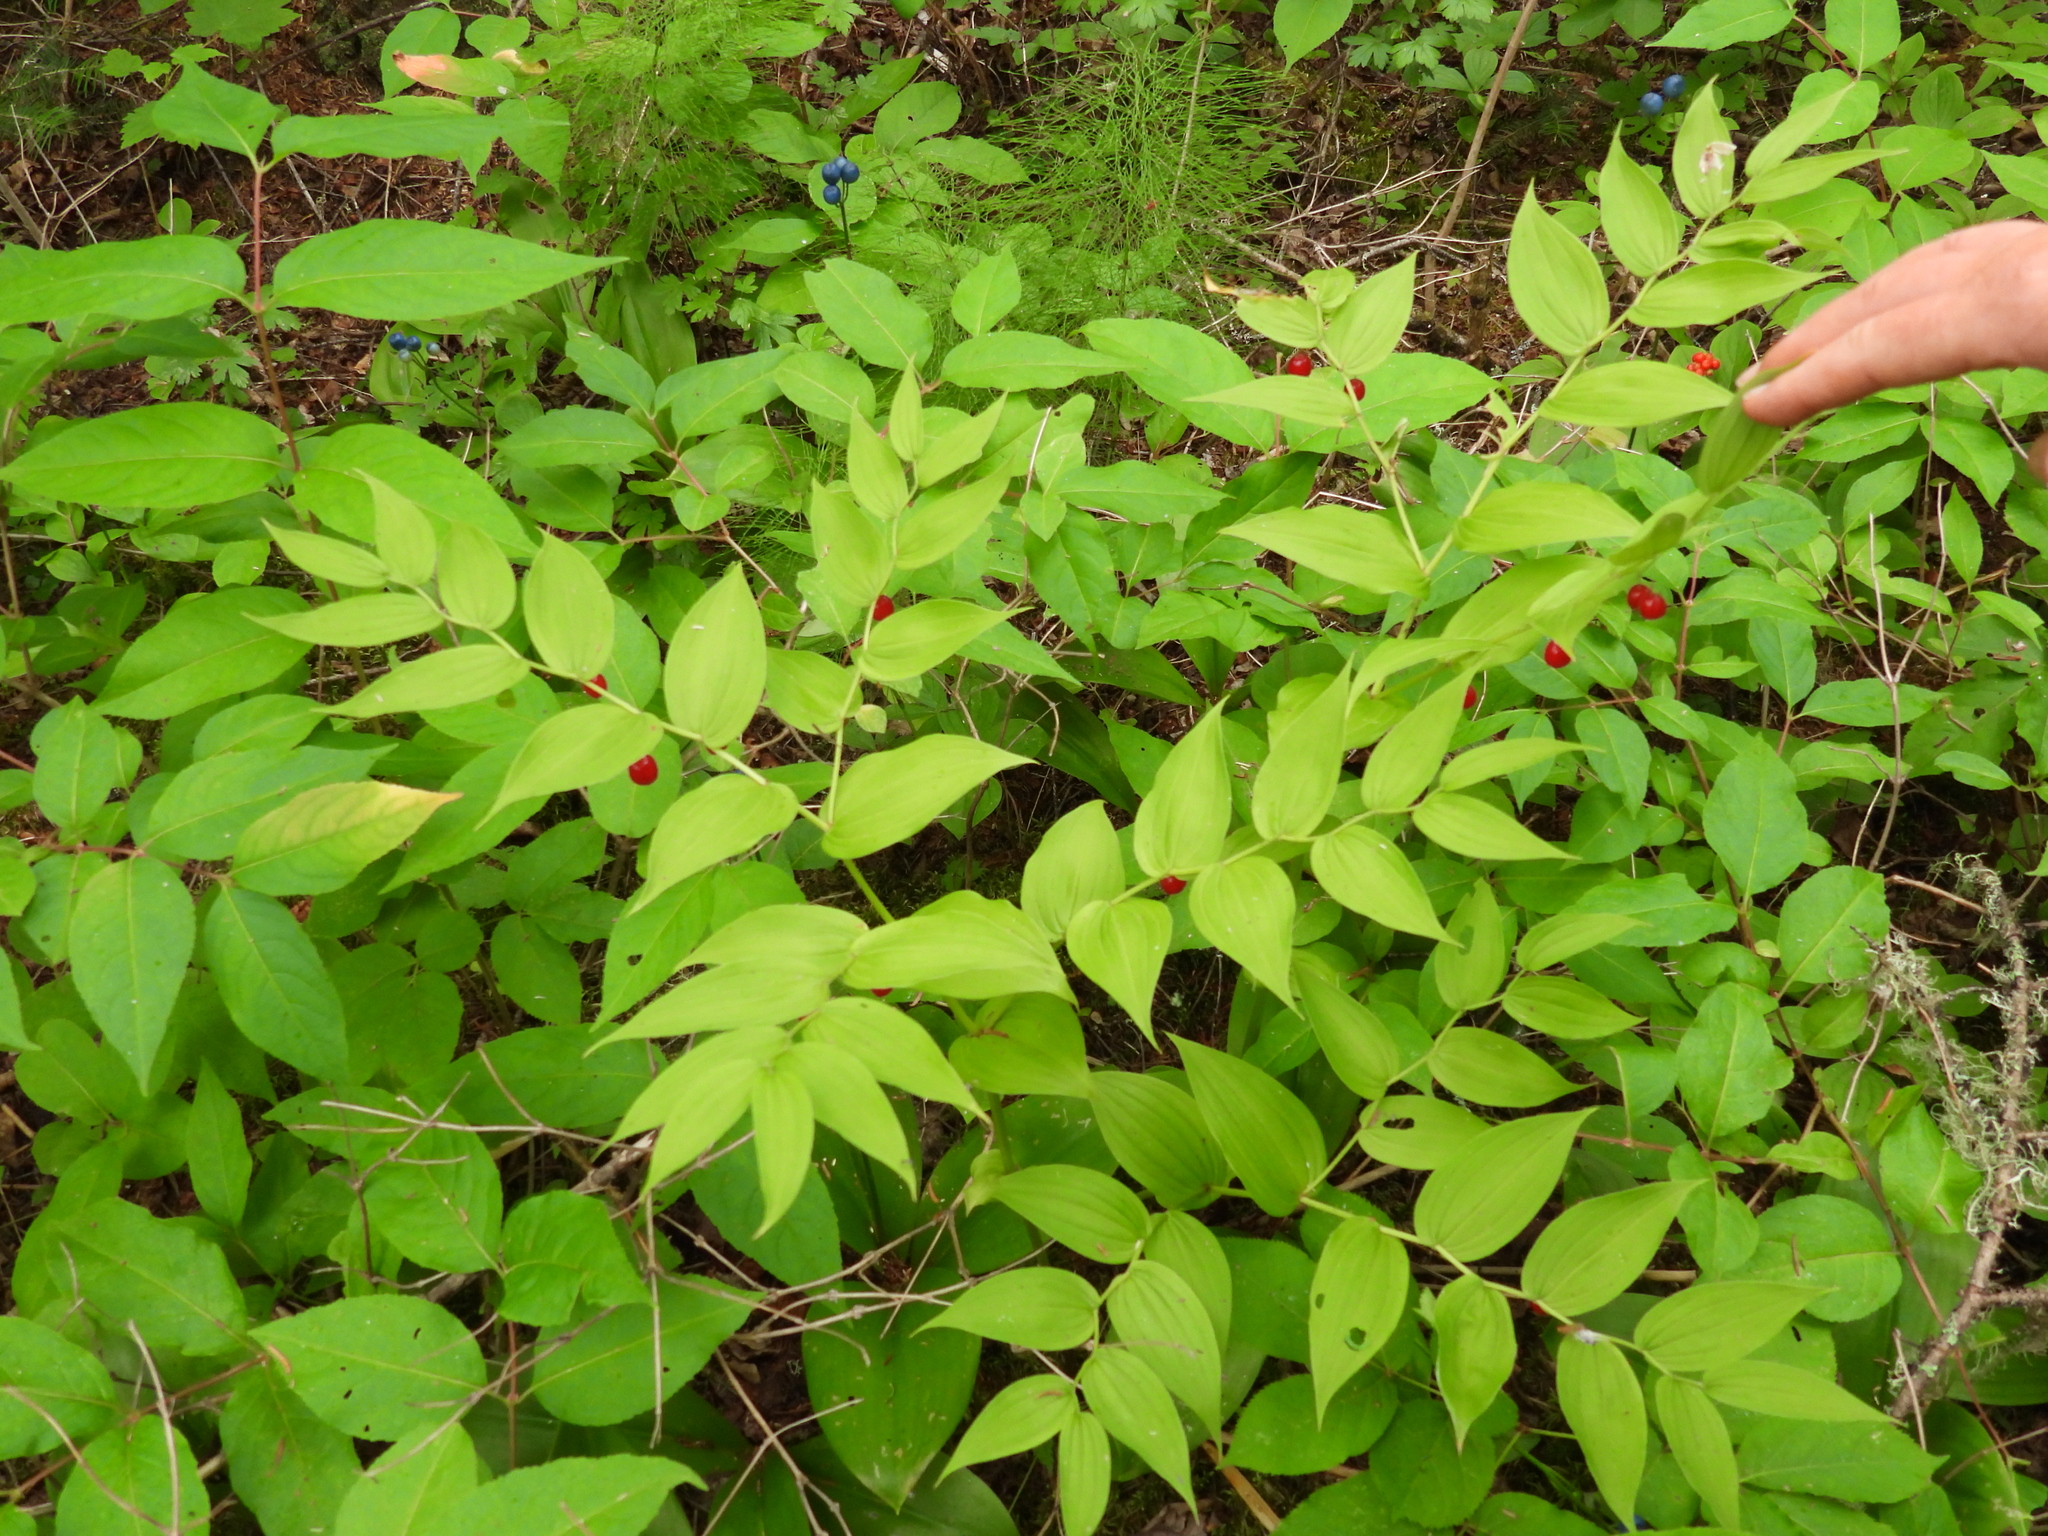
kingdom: Plantae
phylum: Tracheophyta
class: Liliopsida
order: Liliales
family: Liliaceae
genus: Streptopus
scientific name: Streptopus lanceolatus
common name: Rose mandarin
